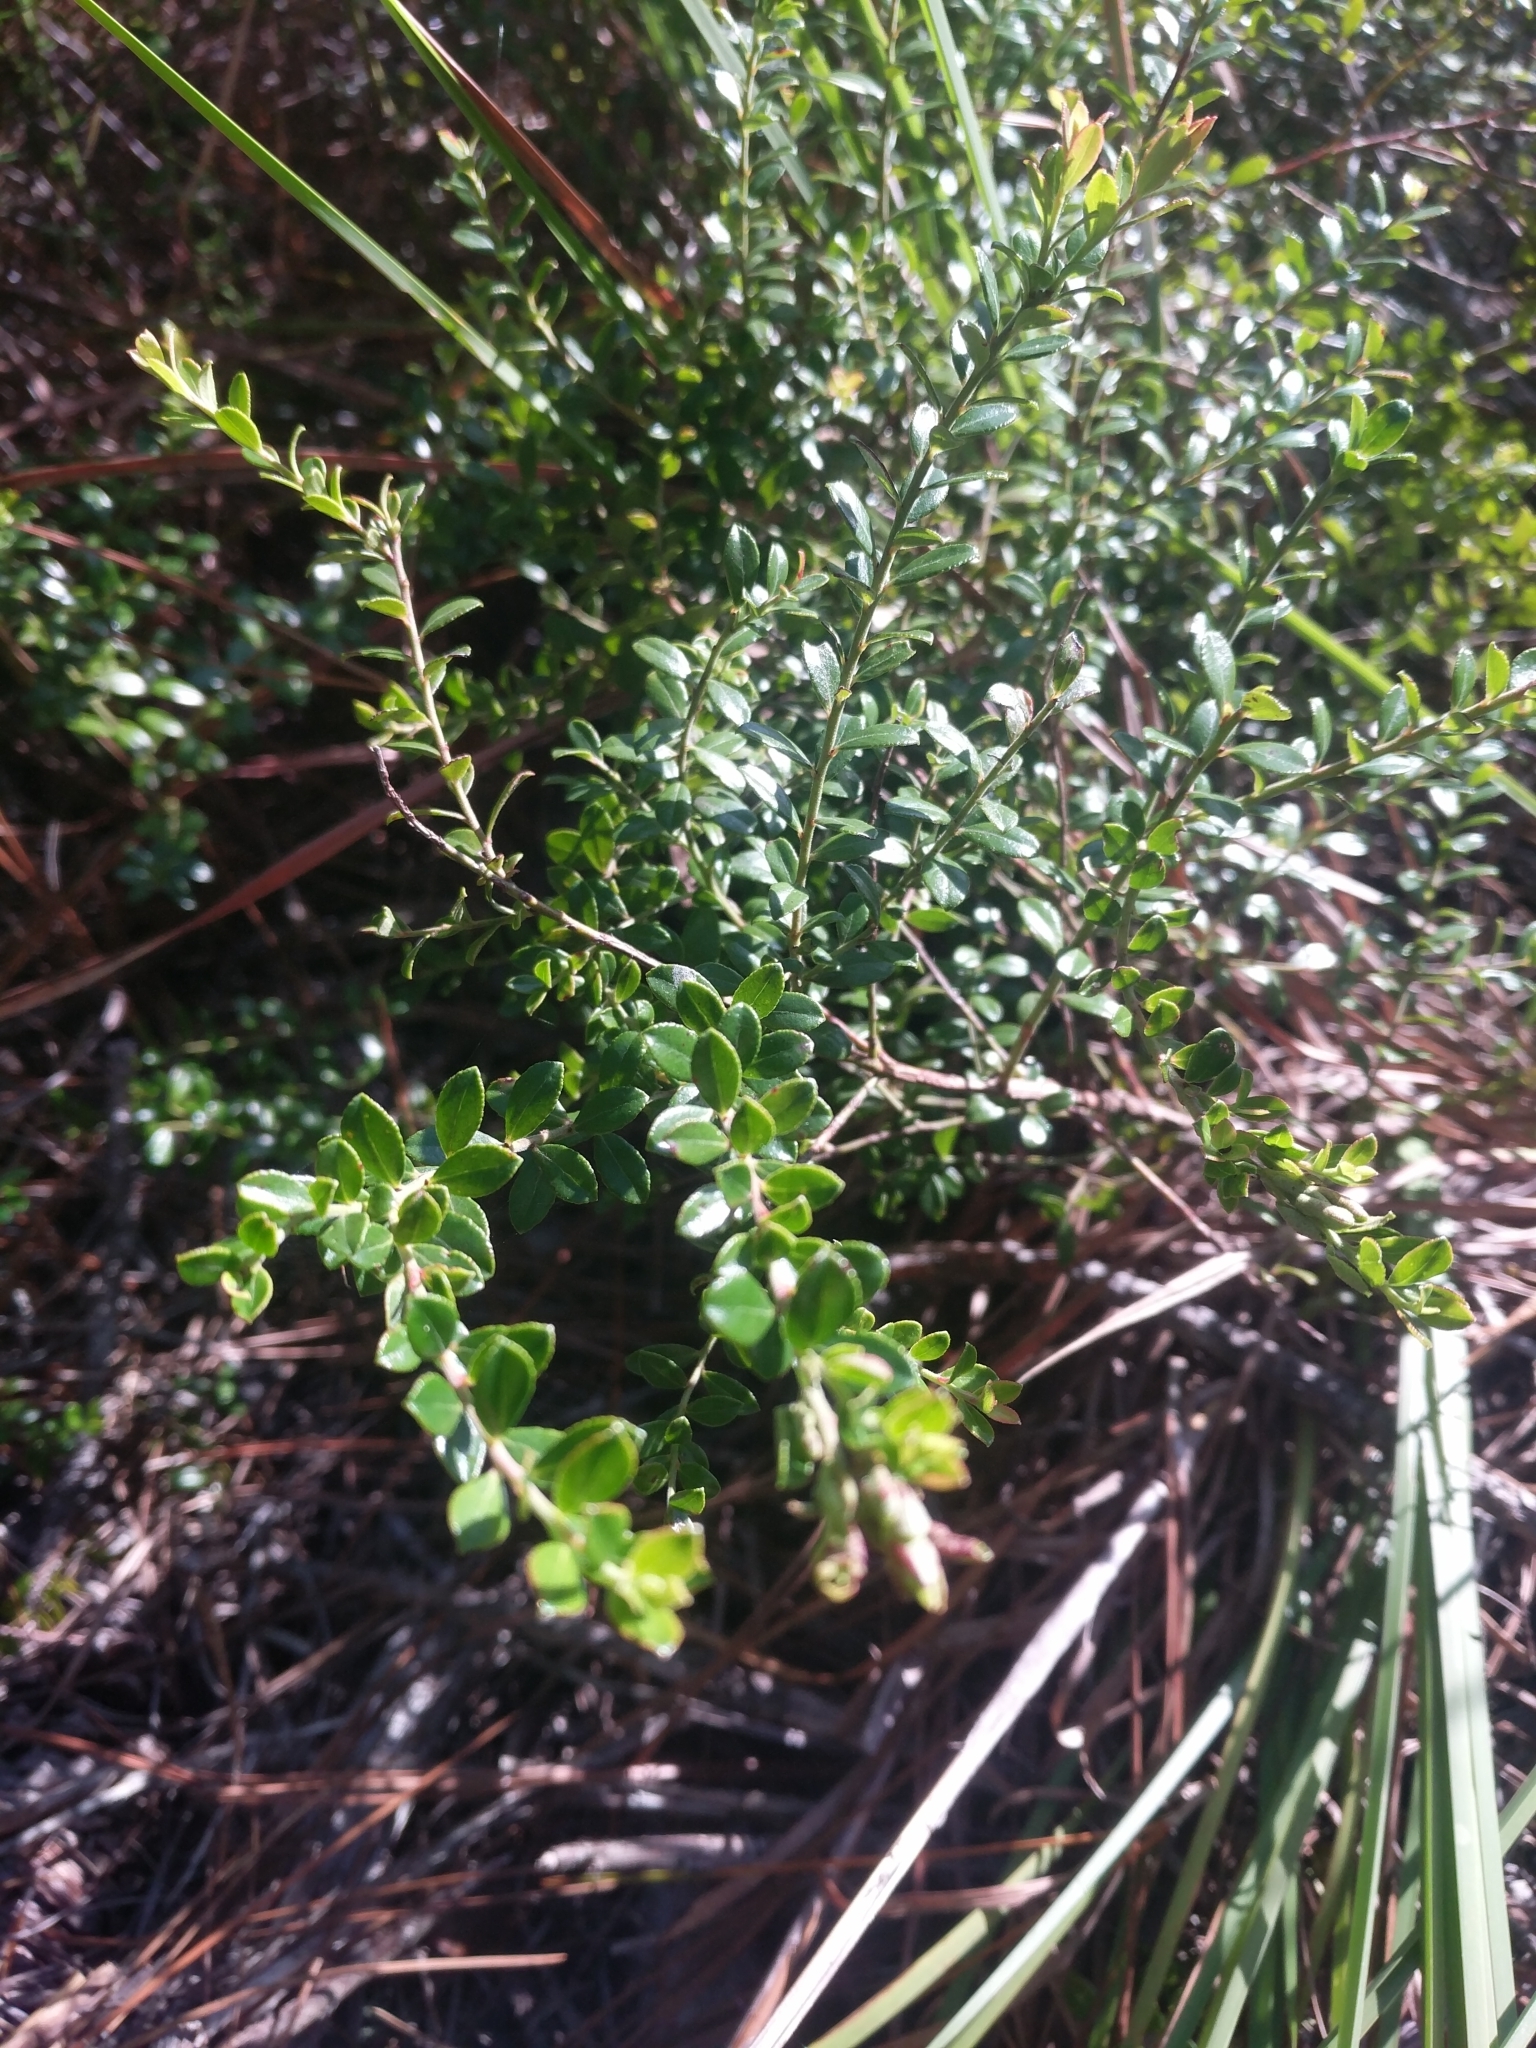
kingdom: Plantae
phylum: Tracheophyta
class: Magnoliopsida
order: Ericales
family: Ericaceae
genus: Vaccinium
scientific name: Vaccinium myrsinites
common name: Evergreen blueberry
